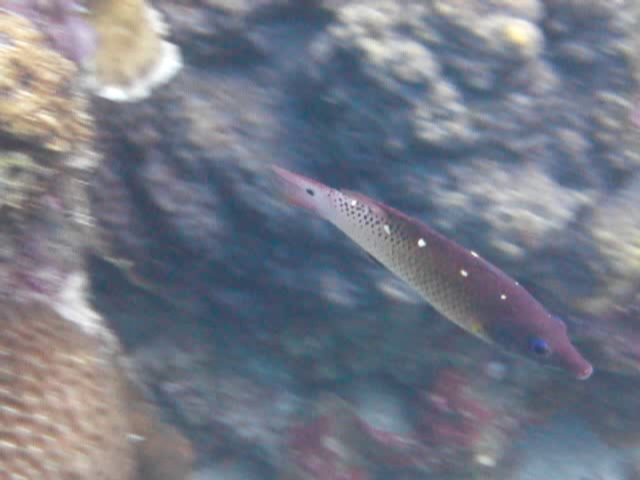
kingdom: Animalia
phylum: Chordata
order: Perciformes
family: Labridae
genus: Bodianus
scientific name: Bodianus dictynna
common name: Diana's hogfish
